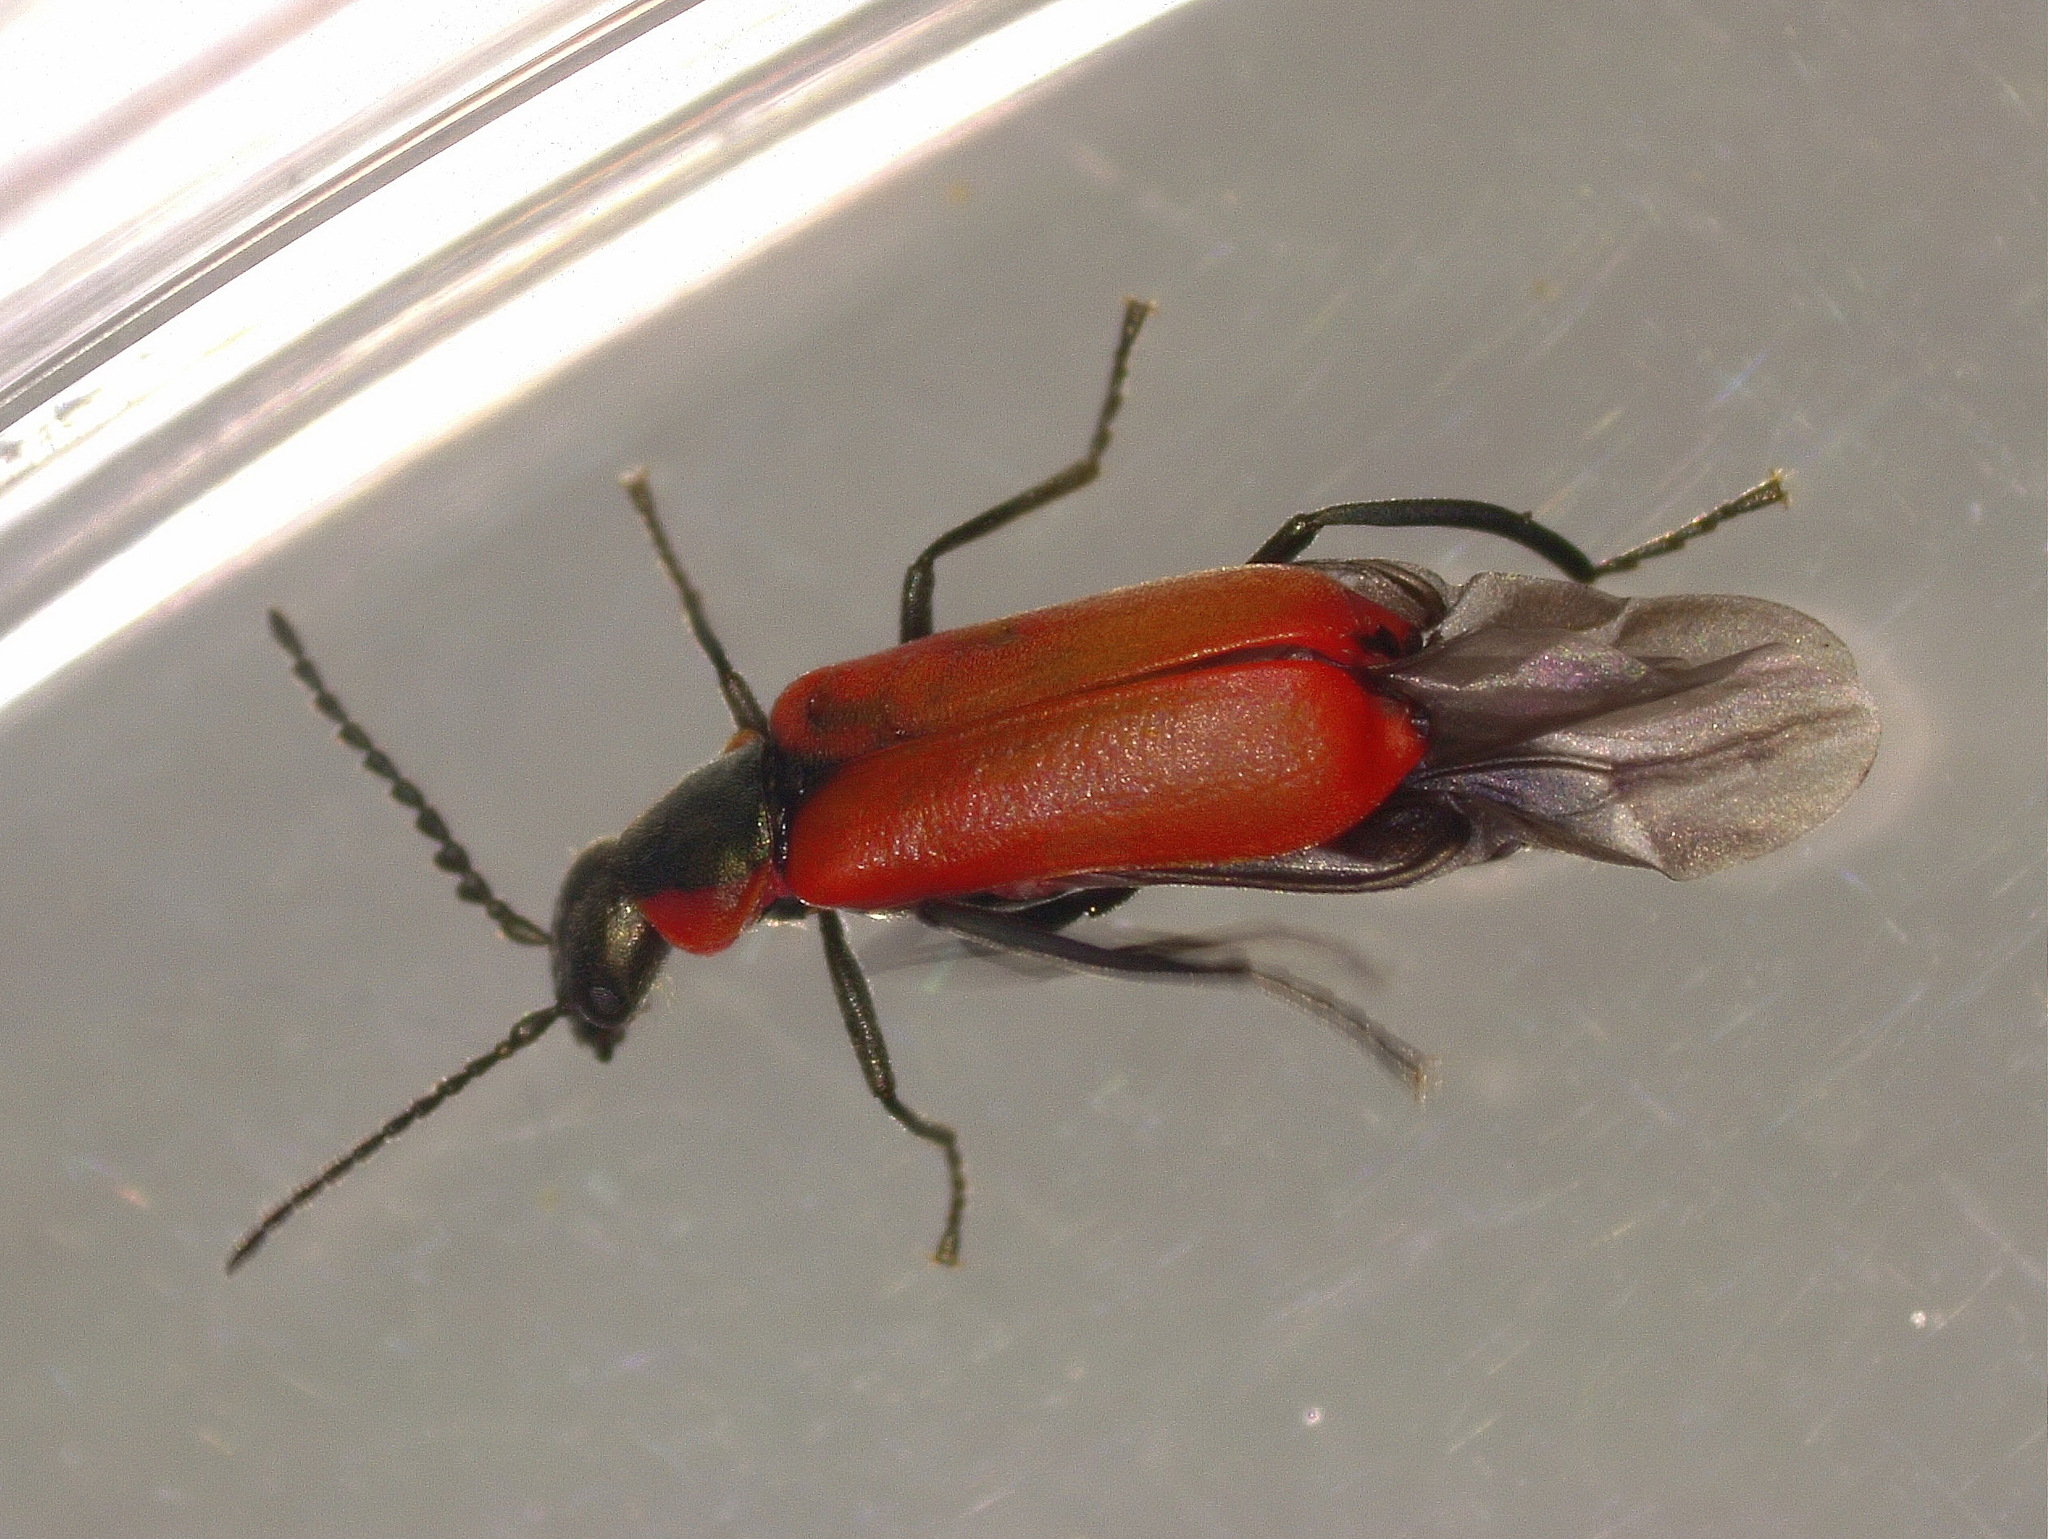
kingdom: Animalia
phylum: Arthropoda
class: Insecta
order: Coleoptera
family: Melyridae
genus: Anthocomus
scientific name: Anthocomus rufus
